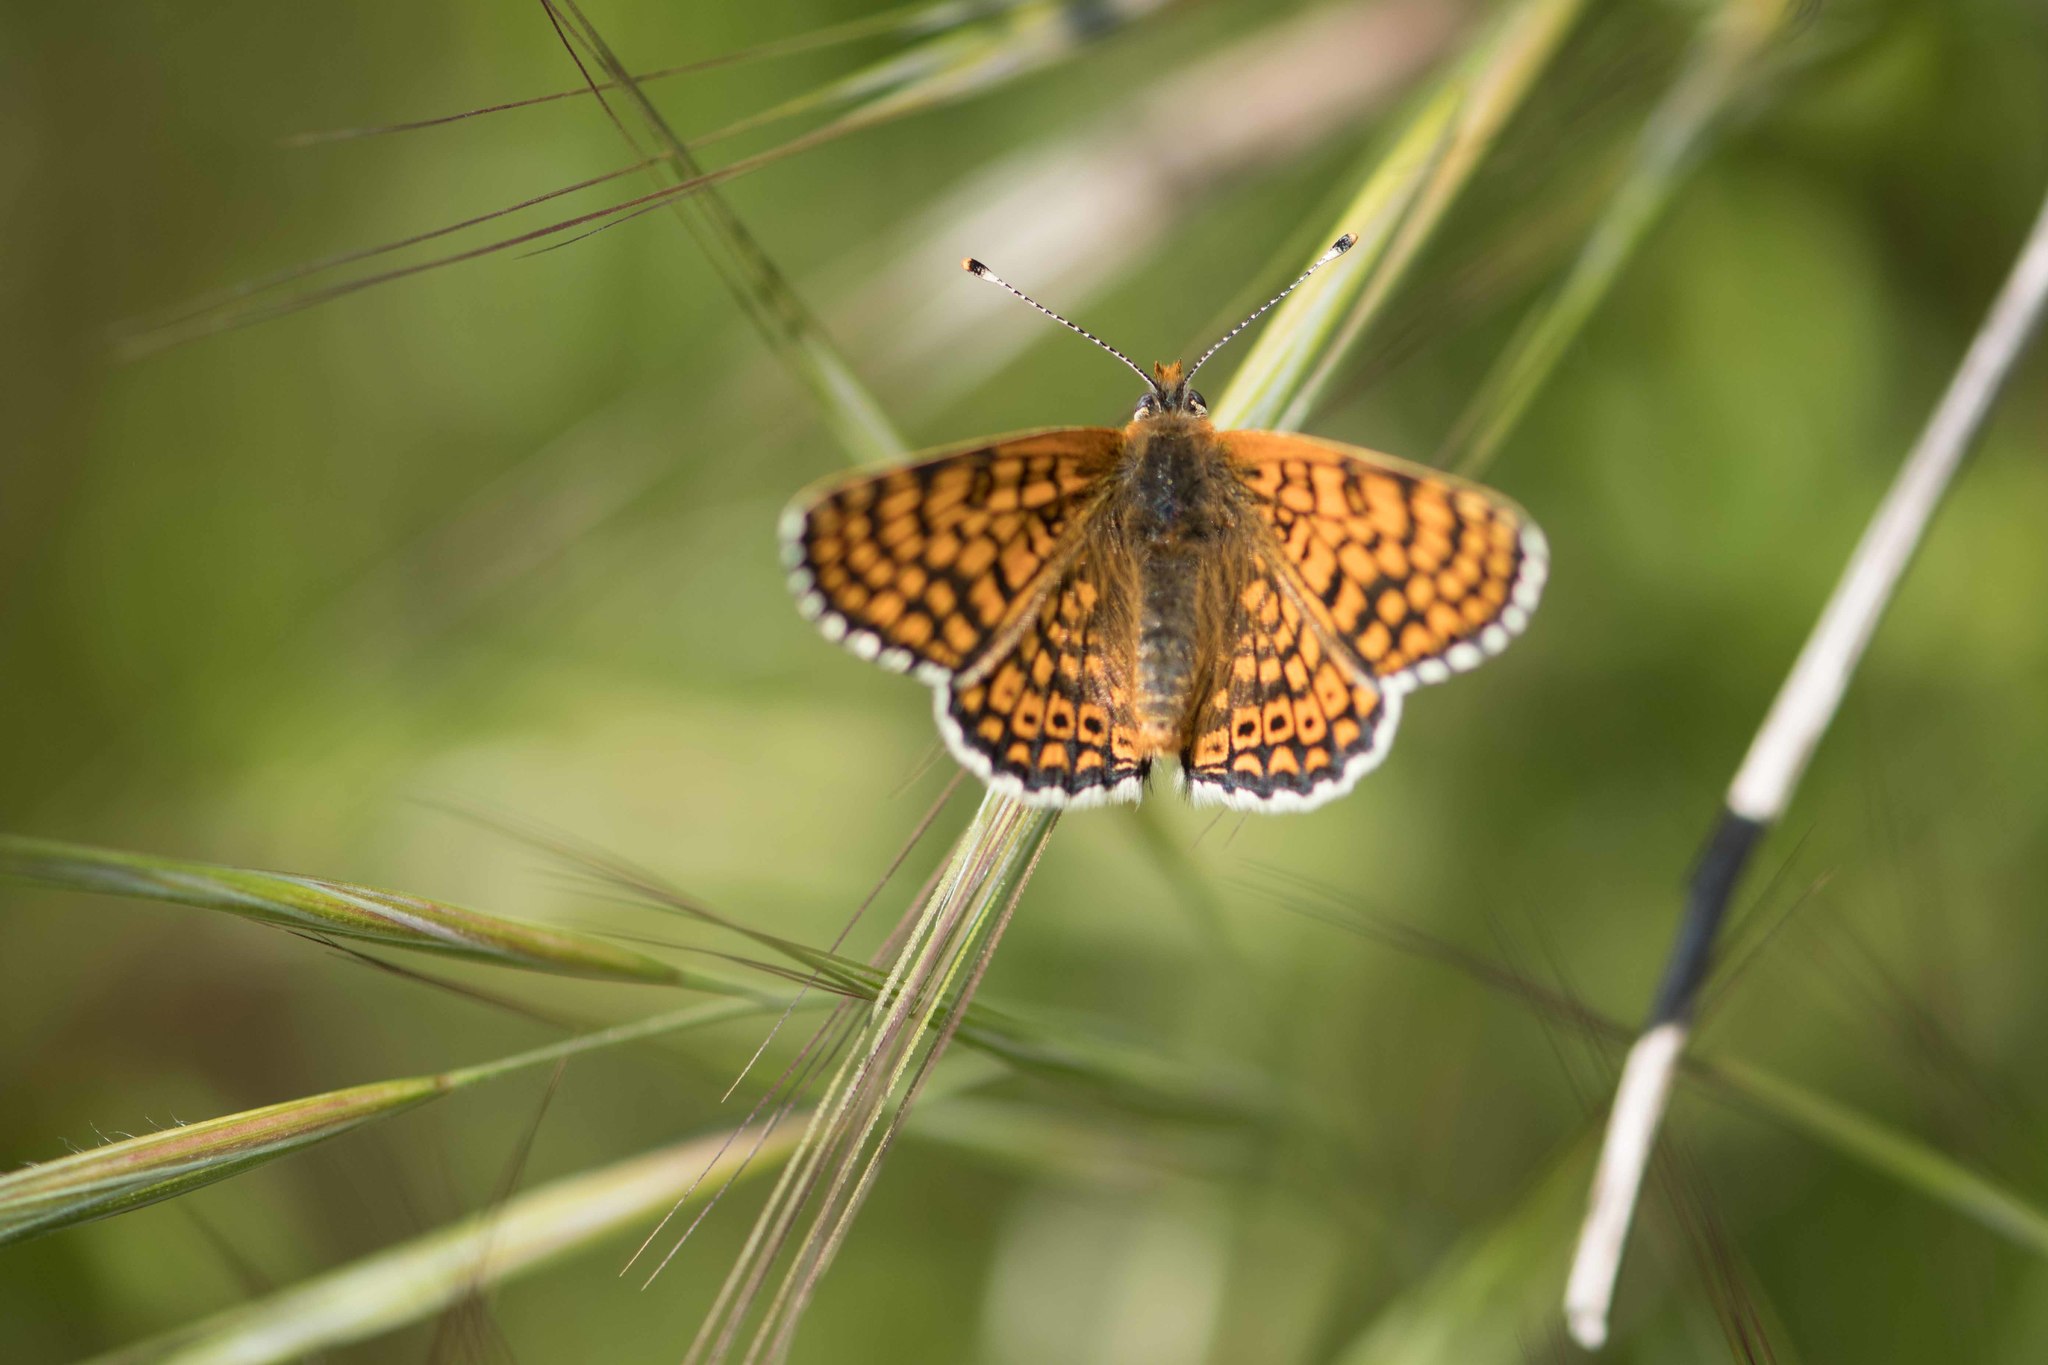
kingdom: Animalia
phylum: Arthropoda
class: Insecta
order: Lepidoptera
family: Nymphalidae
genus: Melitaea
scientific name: Melitaea cinxia
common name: Glanville fritillary
